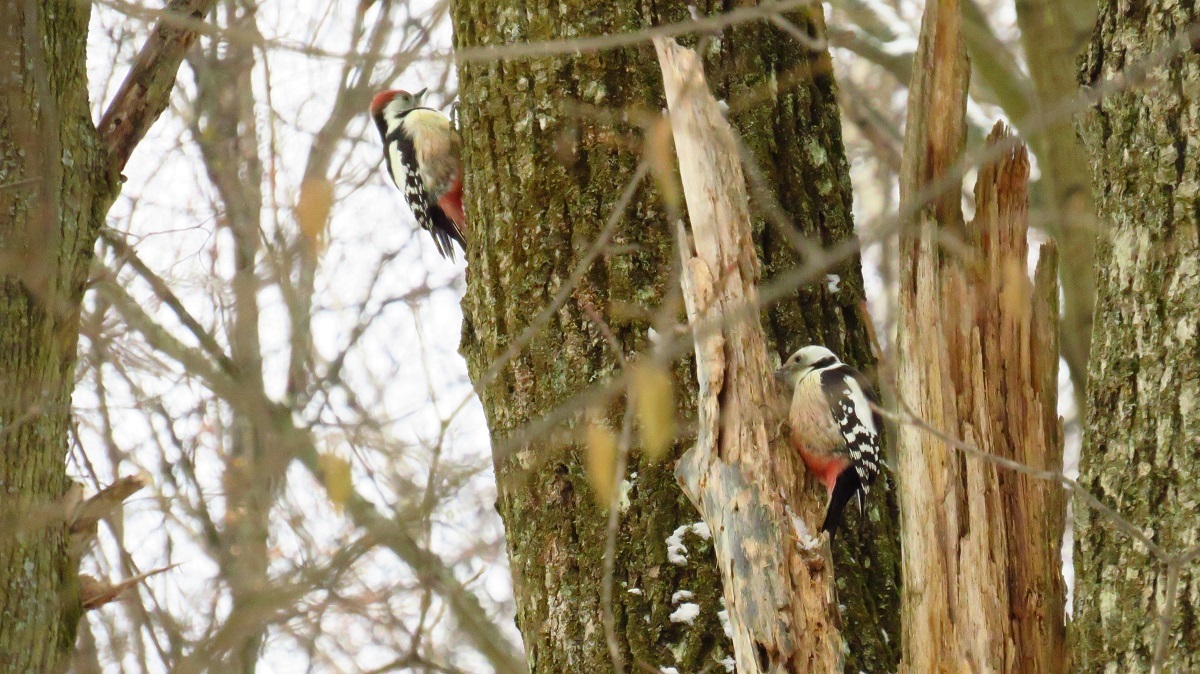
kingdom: Animalia
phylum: Chordata
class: Aves
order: Piciformes
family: Picidae
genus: Dendrocoptes
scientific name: Dendrocoptes medius
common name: Middle spotted woodpecker
